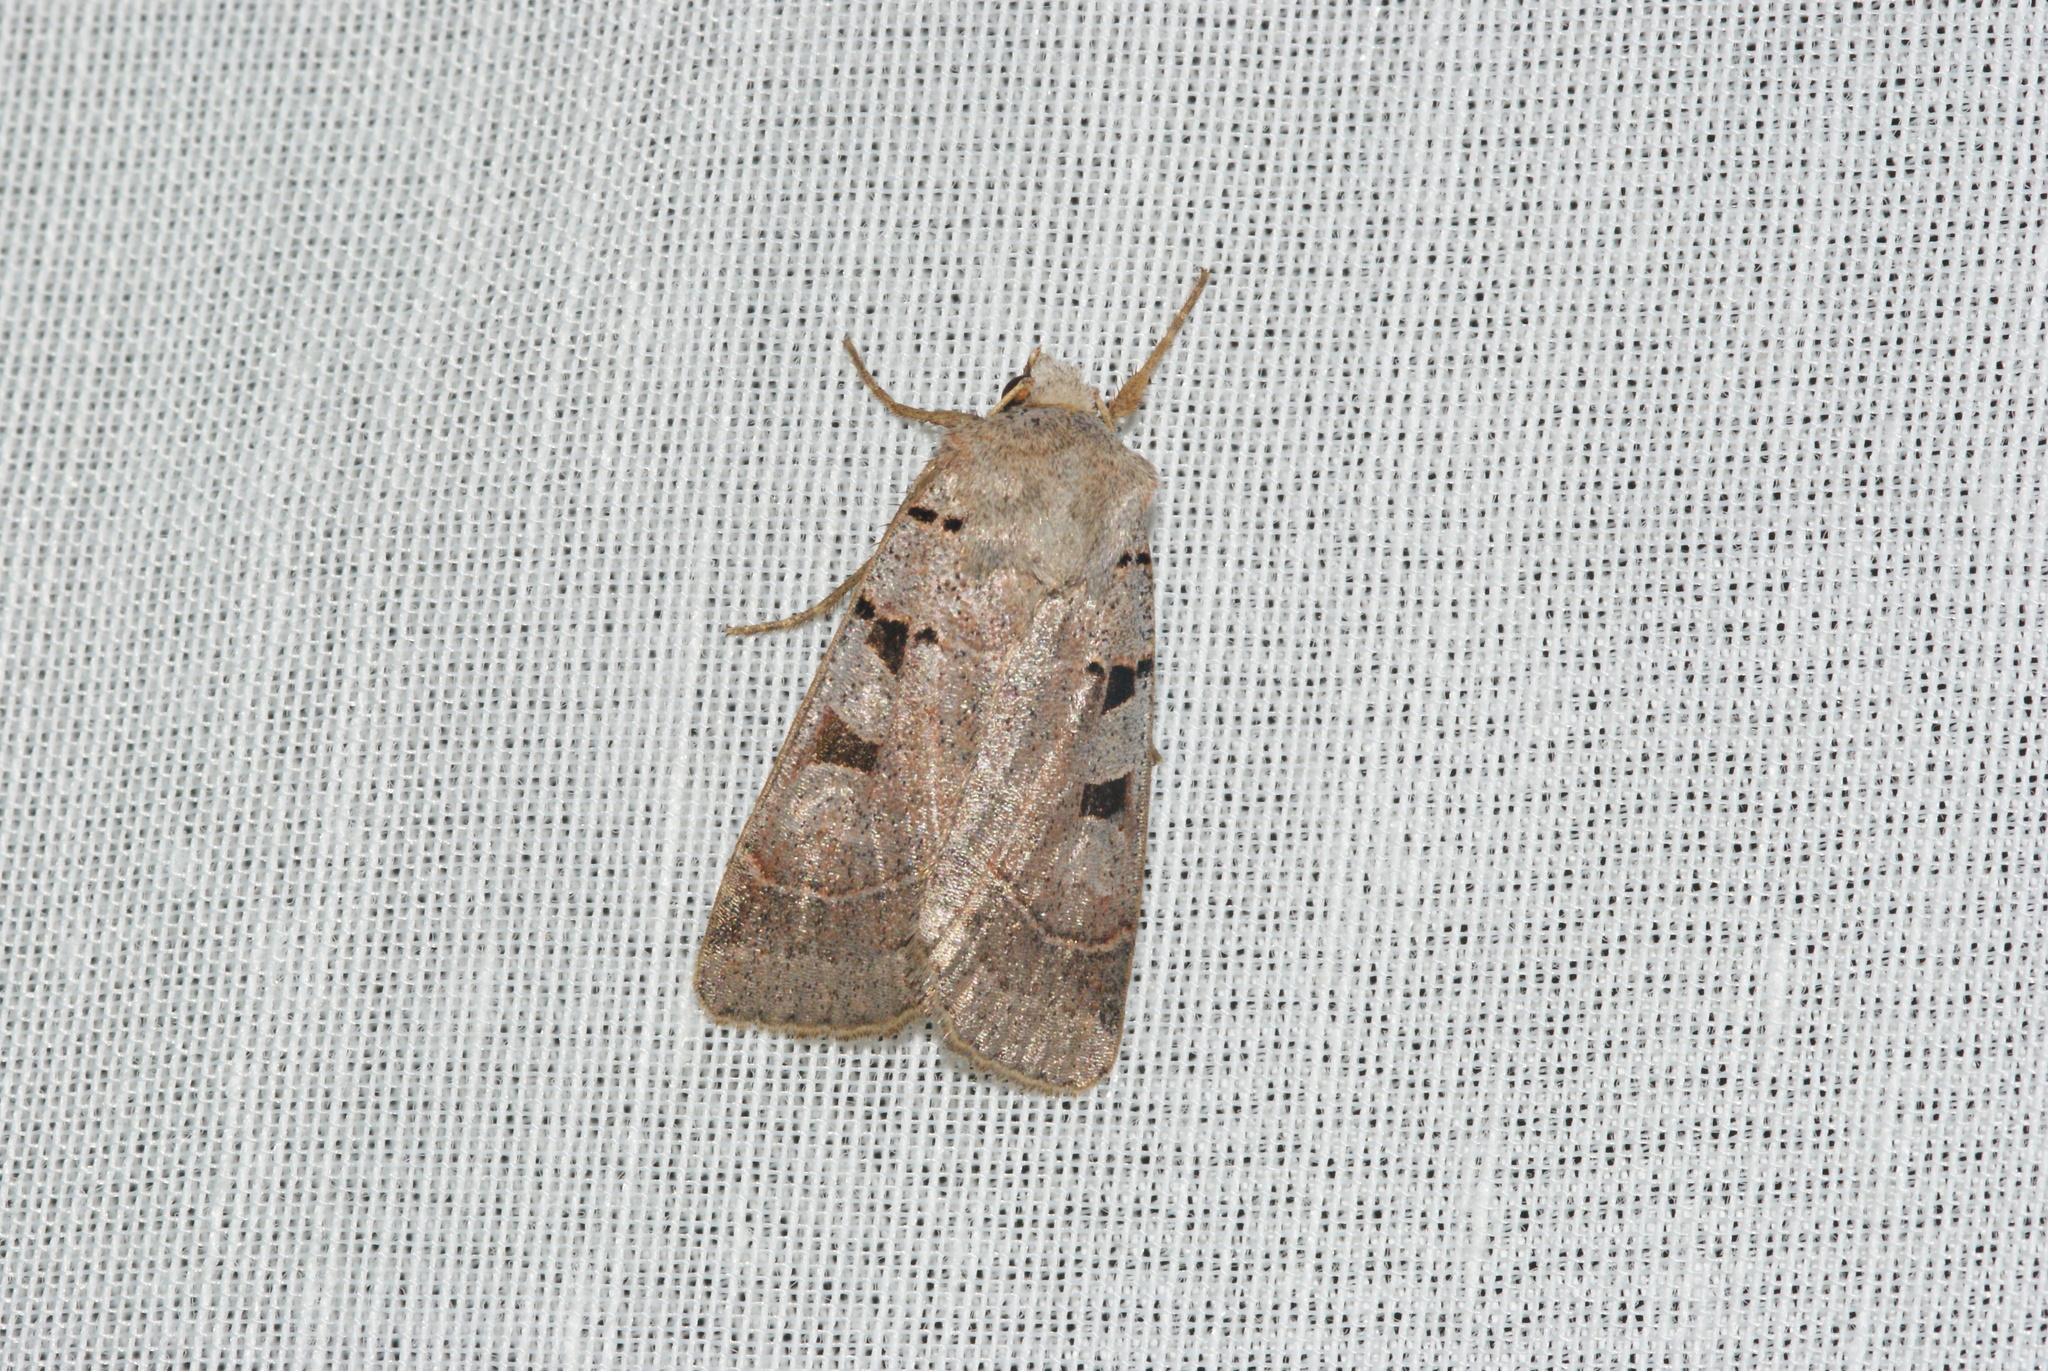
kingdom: Animalia
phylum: Arthropoda
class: Insecta
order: Lepidoptera
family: Noctuidae
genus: Eugnorisma
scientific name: Eugnorisma glareosa
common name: Autumnal rustic
